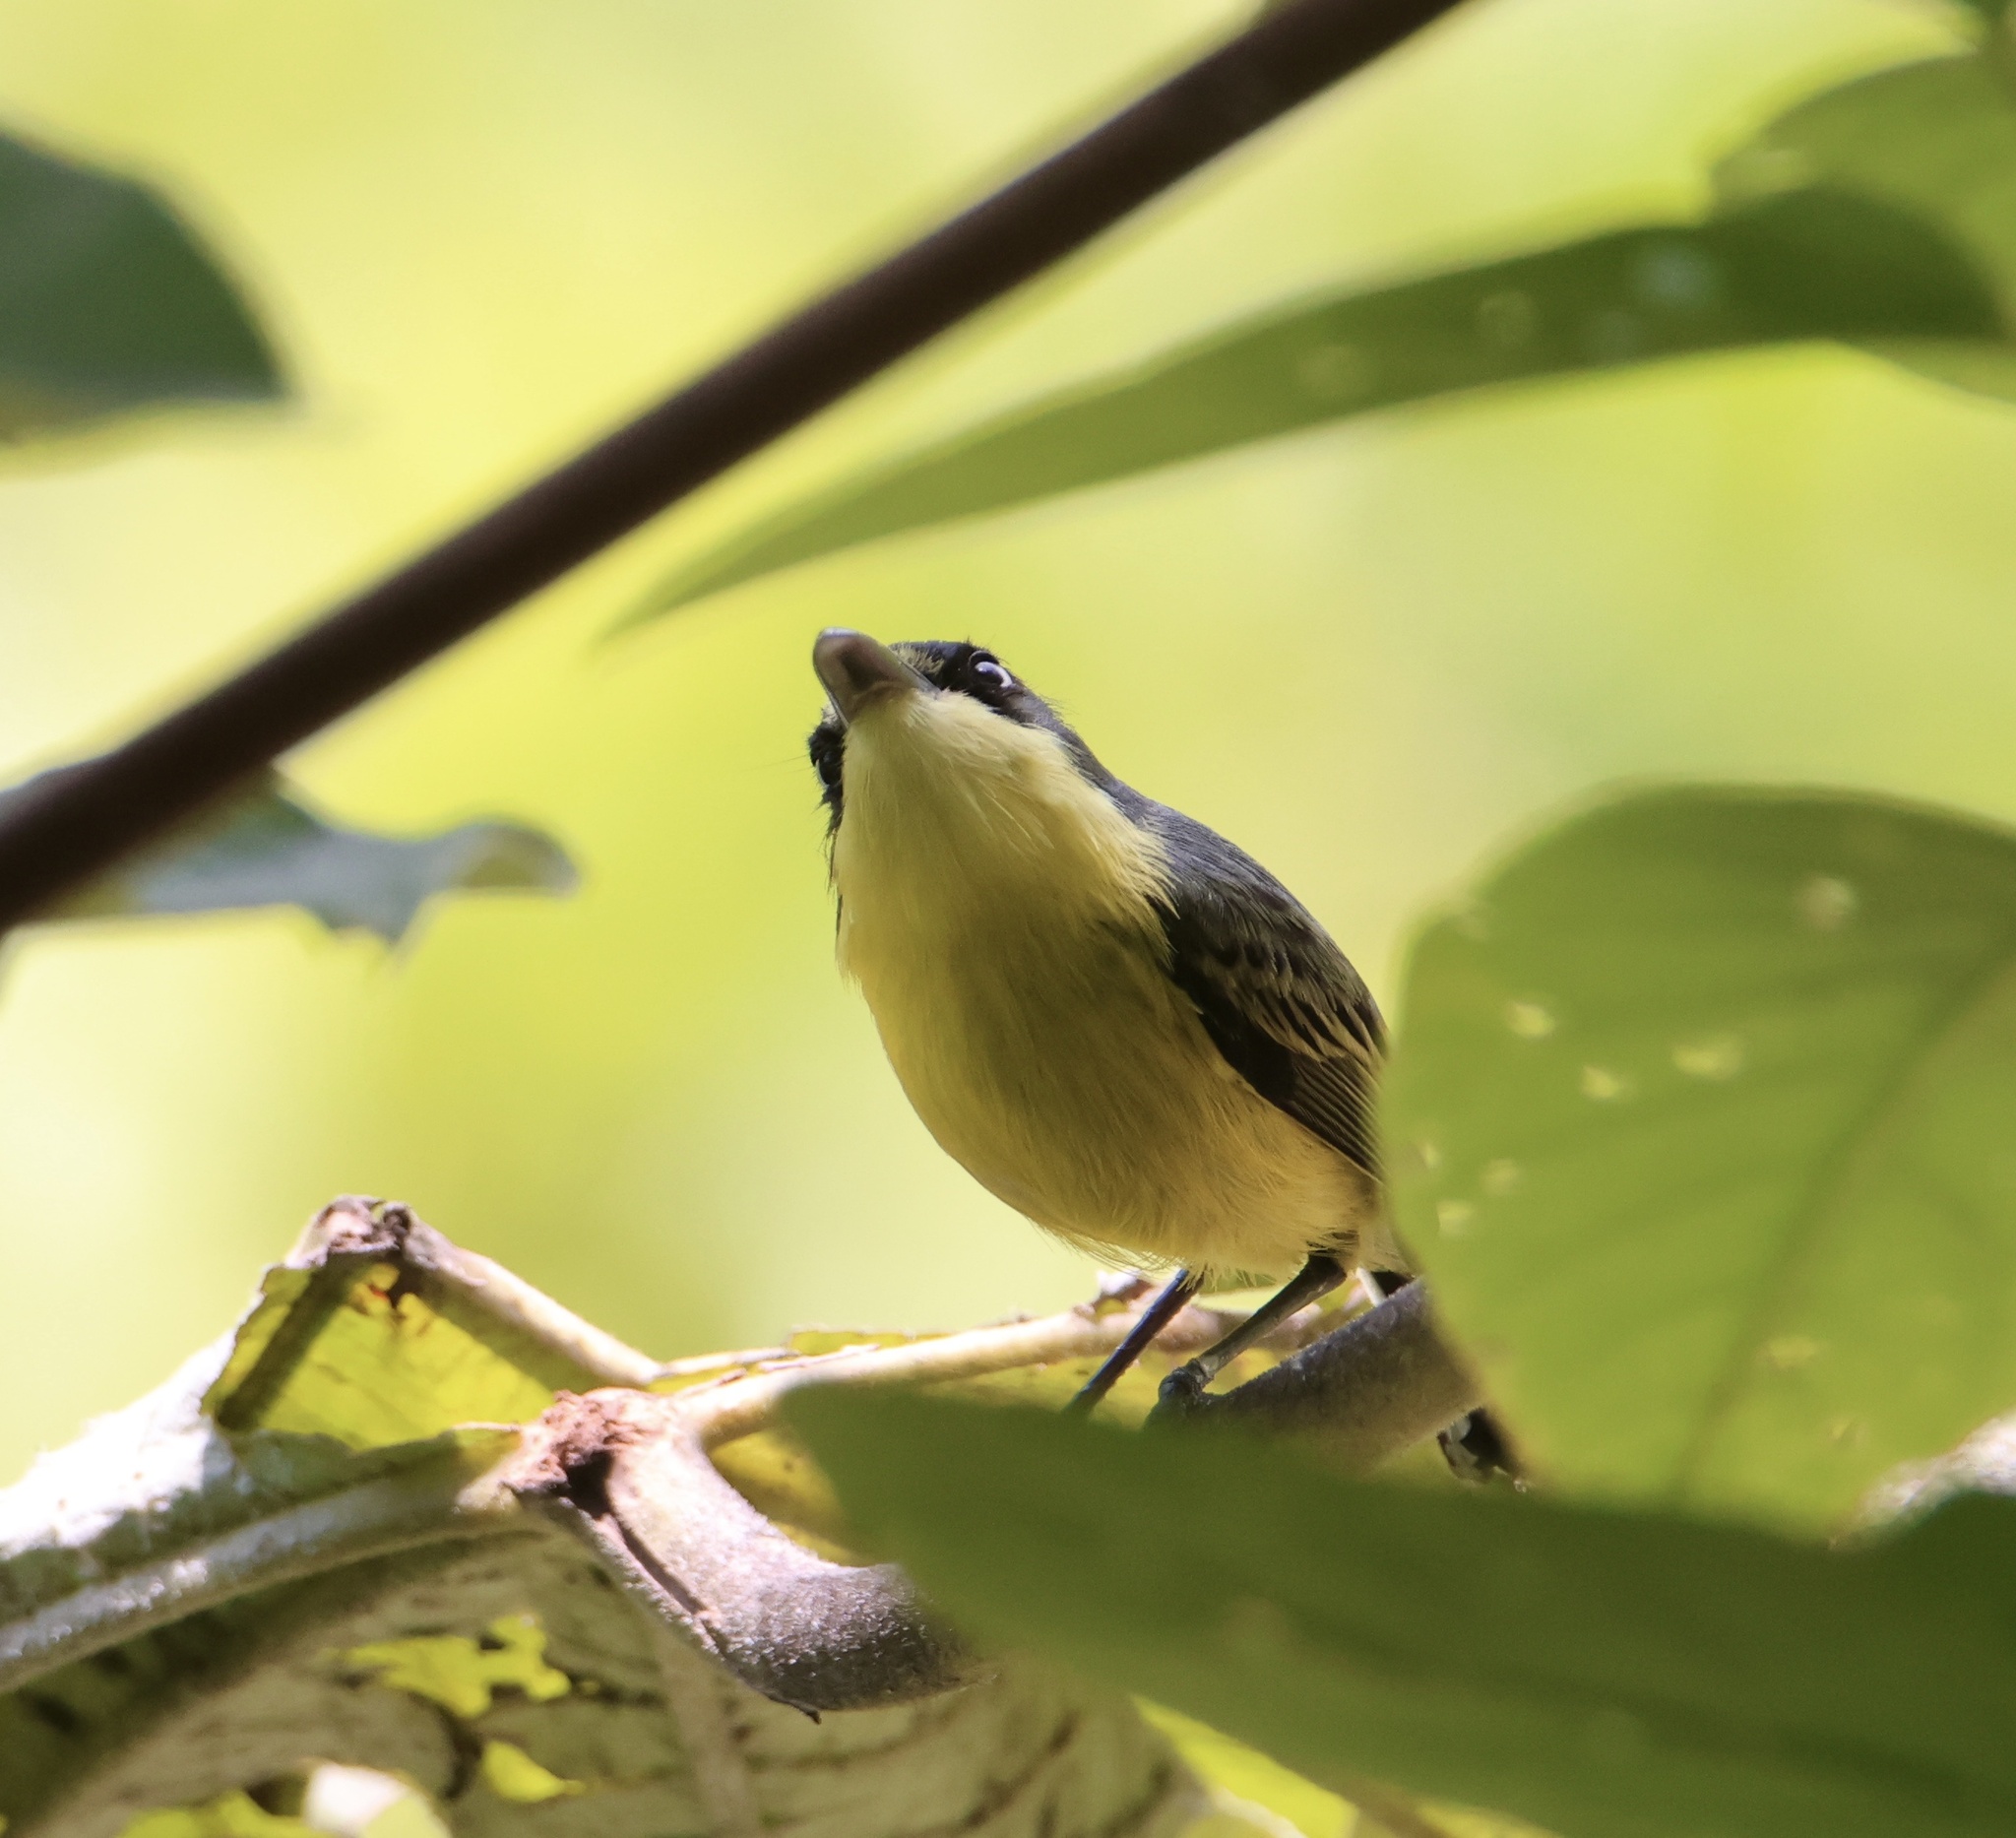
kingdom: Animalia
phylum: Chordata
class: Aves
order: Passeriformes
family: Tyrannidae
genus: Todirostrum
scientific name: Todirostrum cinereum
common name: Common tody-flycatcher
